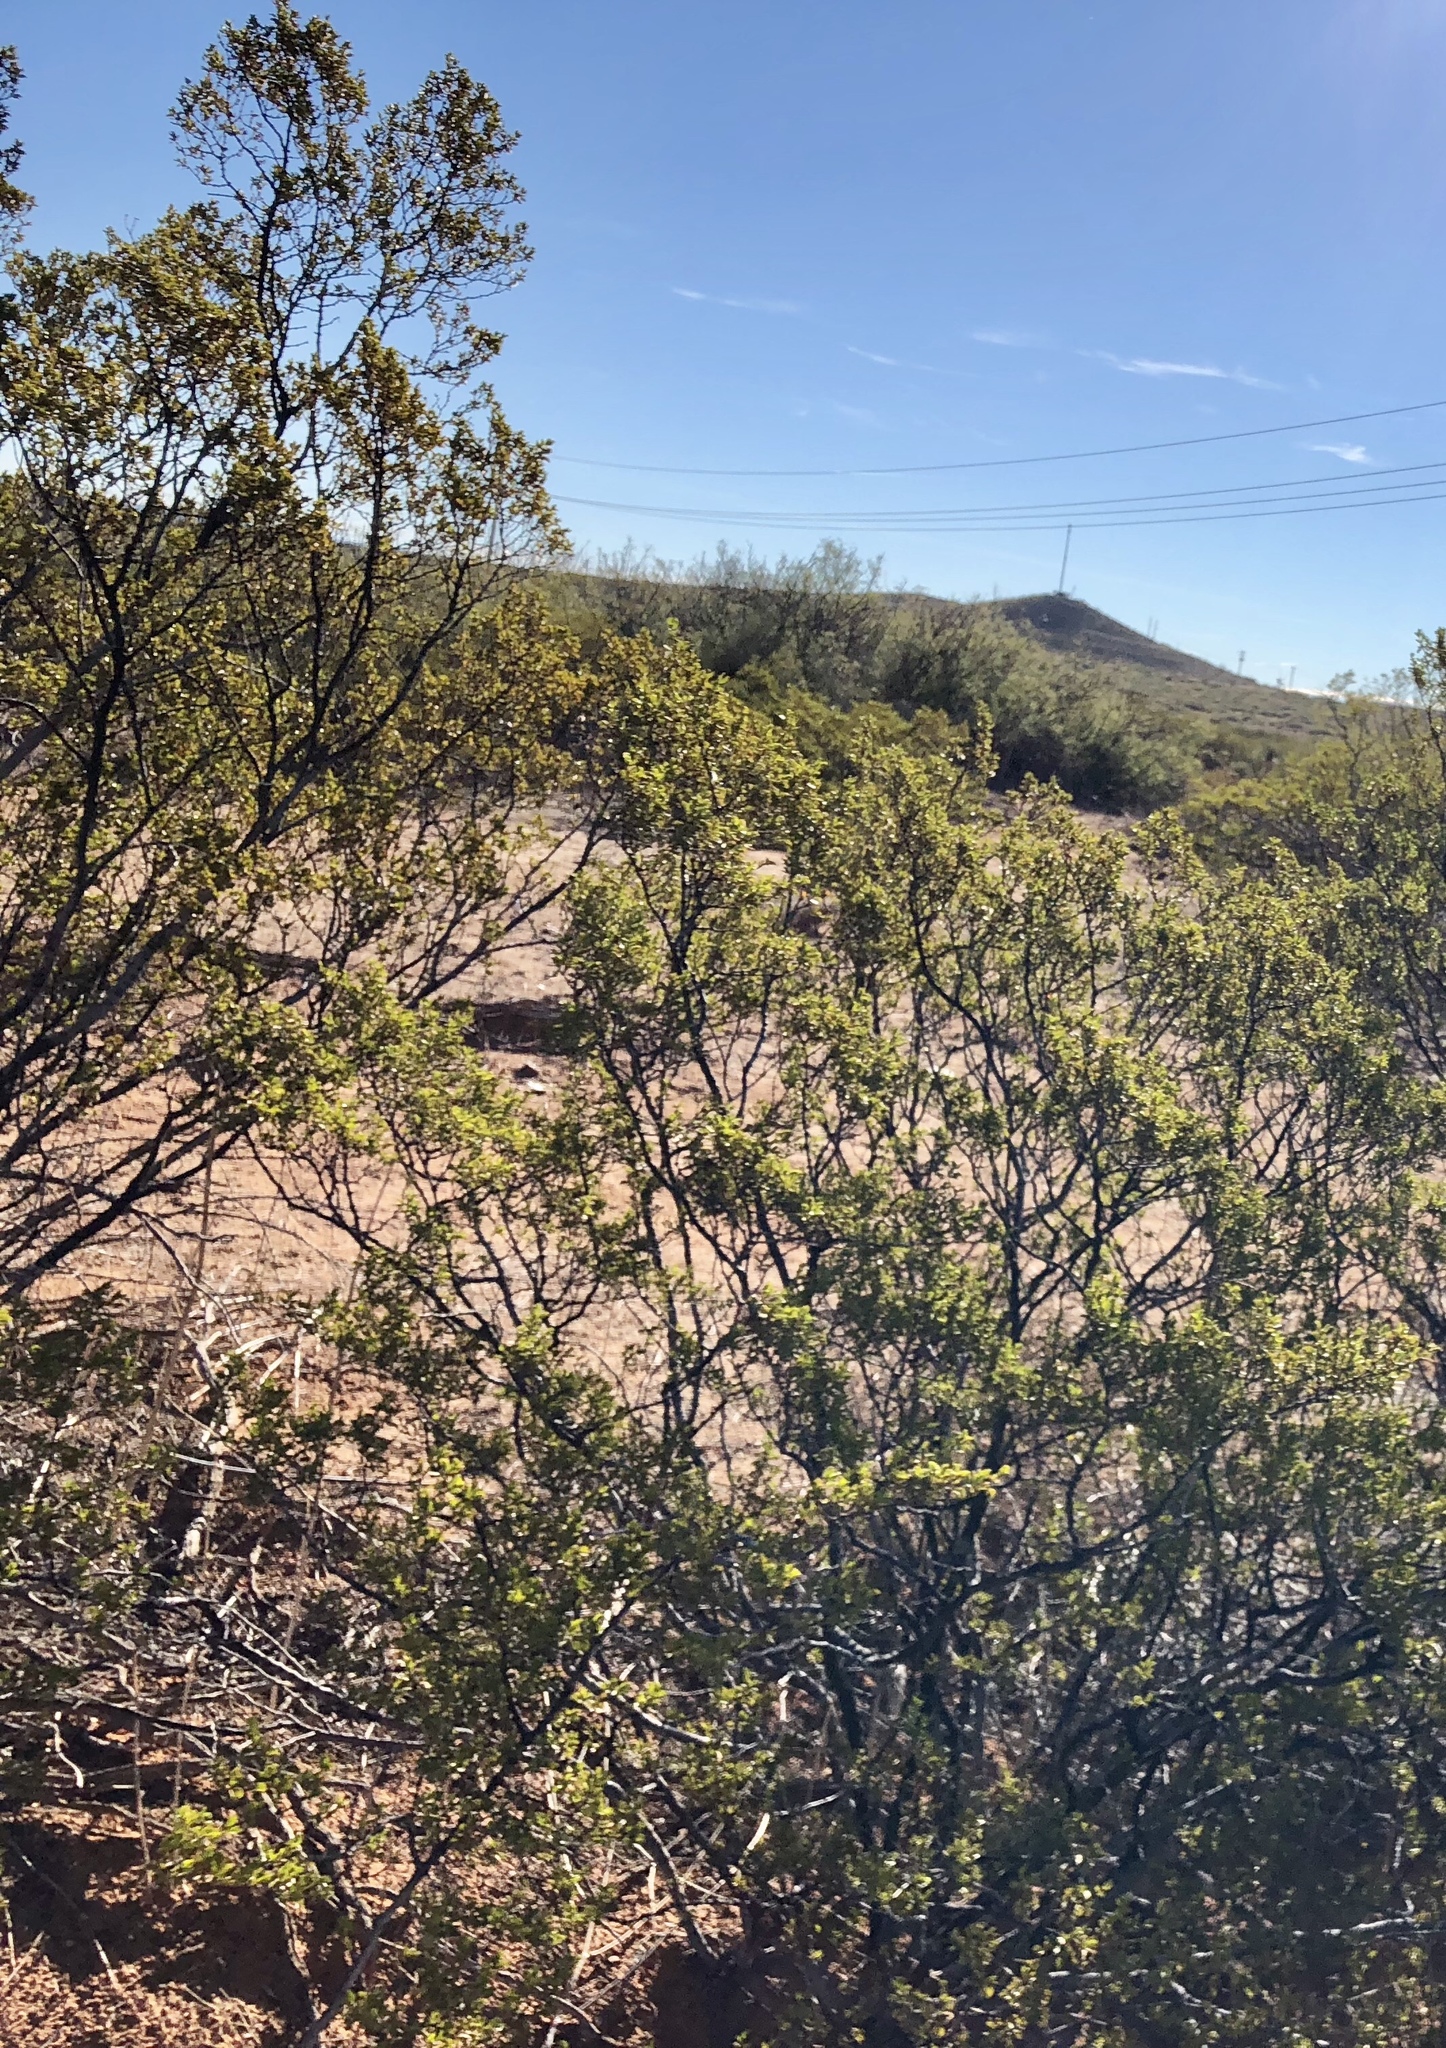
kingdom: Plantae
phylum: Tracheophyta
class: Magnoliopsida
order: Zygophyllales
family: Zygophyllaceae
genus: Larrea
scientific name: Larrea tridentata
